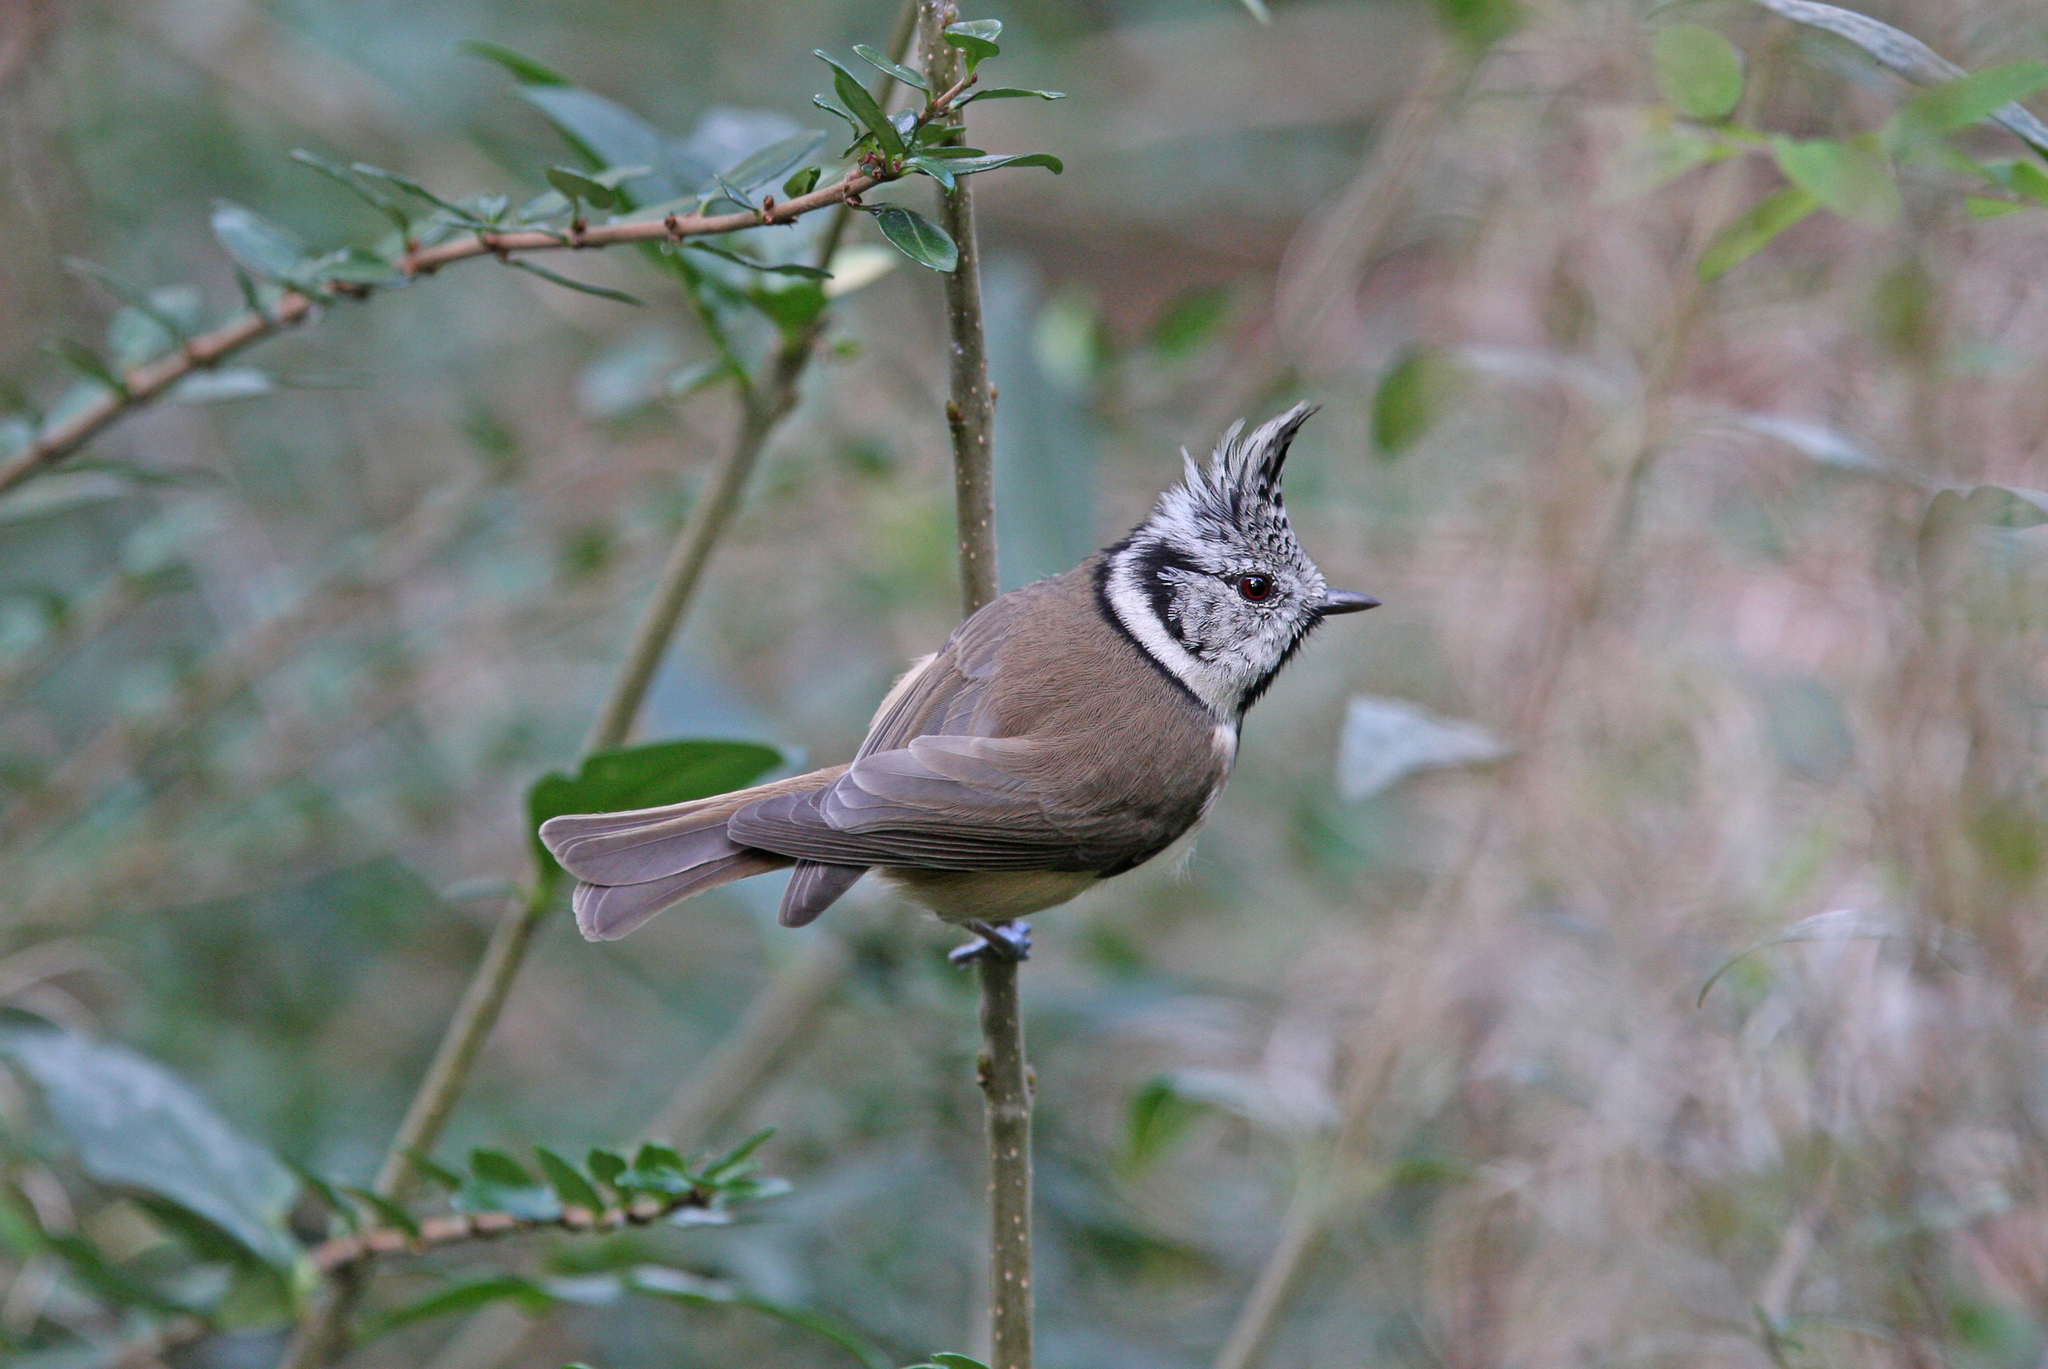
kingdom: Animalia
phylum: Chordata
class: Aves
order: Passeriformes
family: Paridae
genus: Lophophanes
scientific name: Lophophanes cristatus
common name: European crested tit
